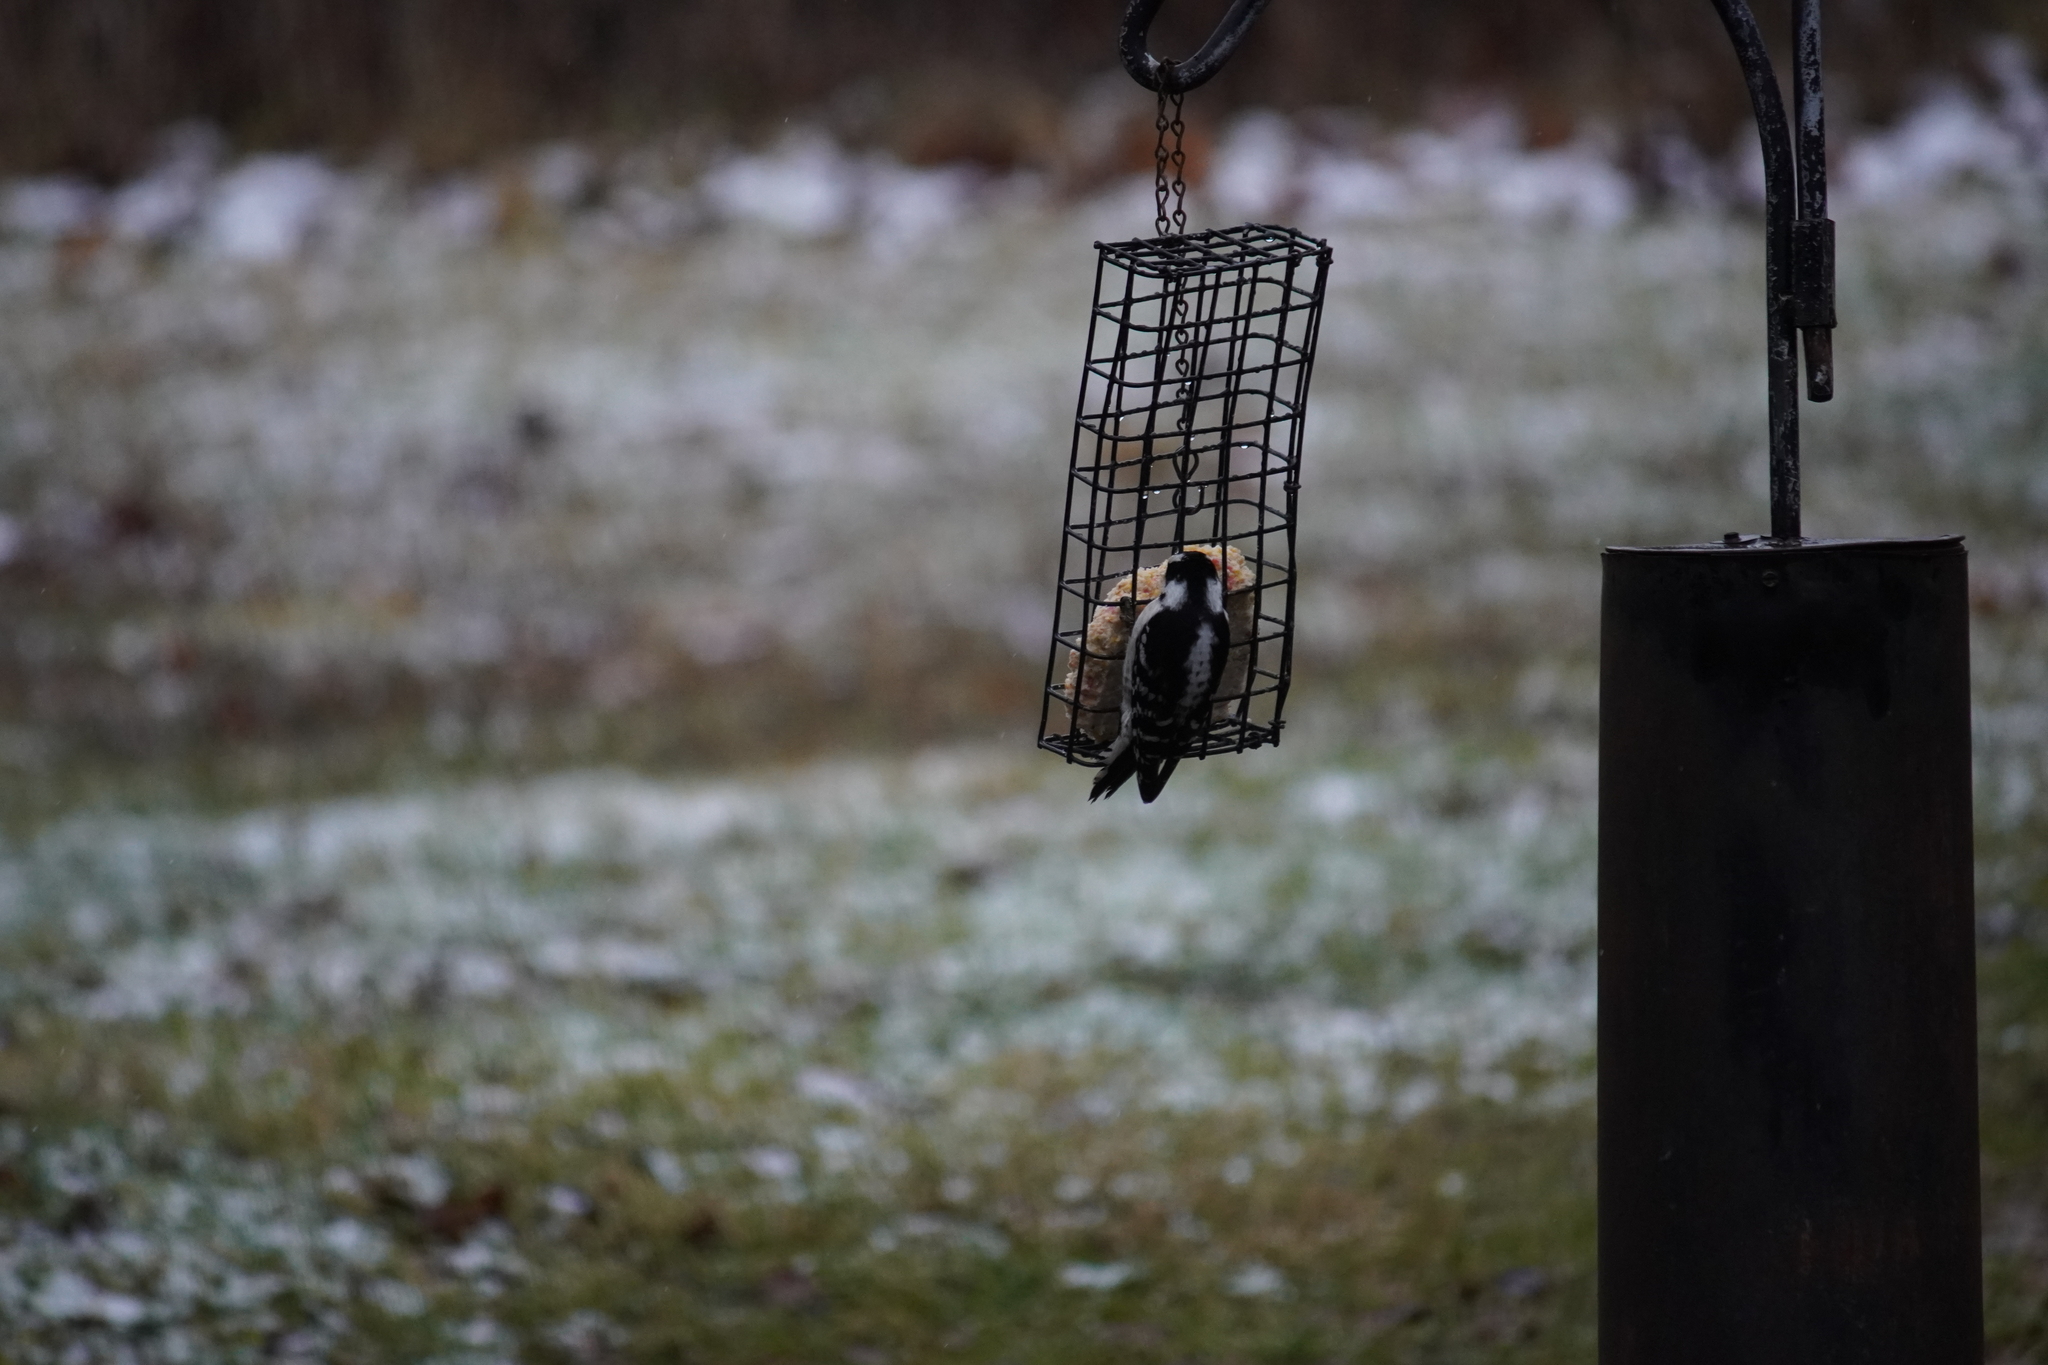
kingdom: Animalia
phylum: Chordata
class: Aves
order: Piciformes
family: Picidae
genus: Dryobates
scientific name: Dryobates pubescens
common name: Downy woodpecker
